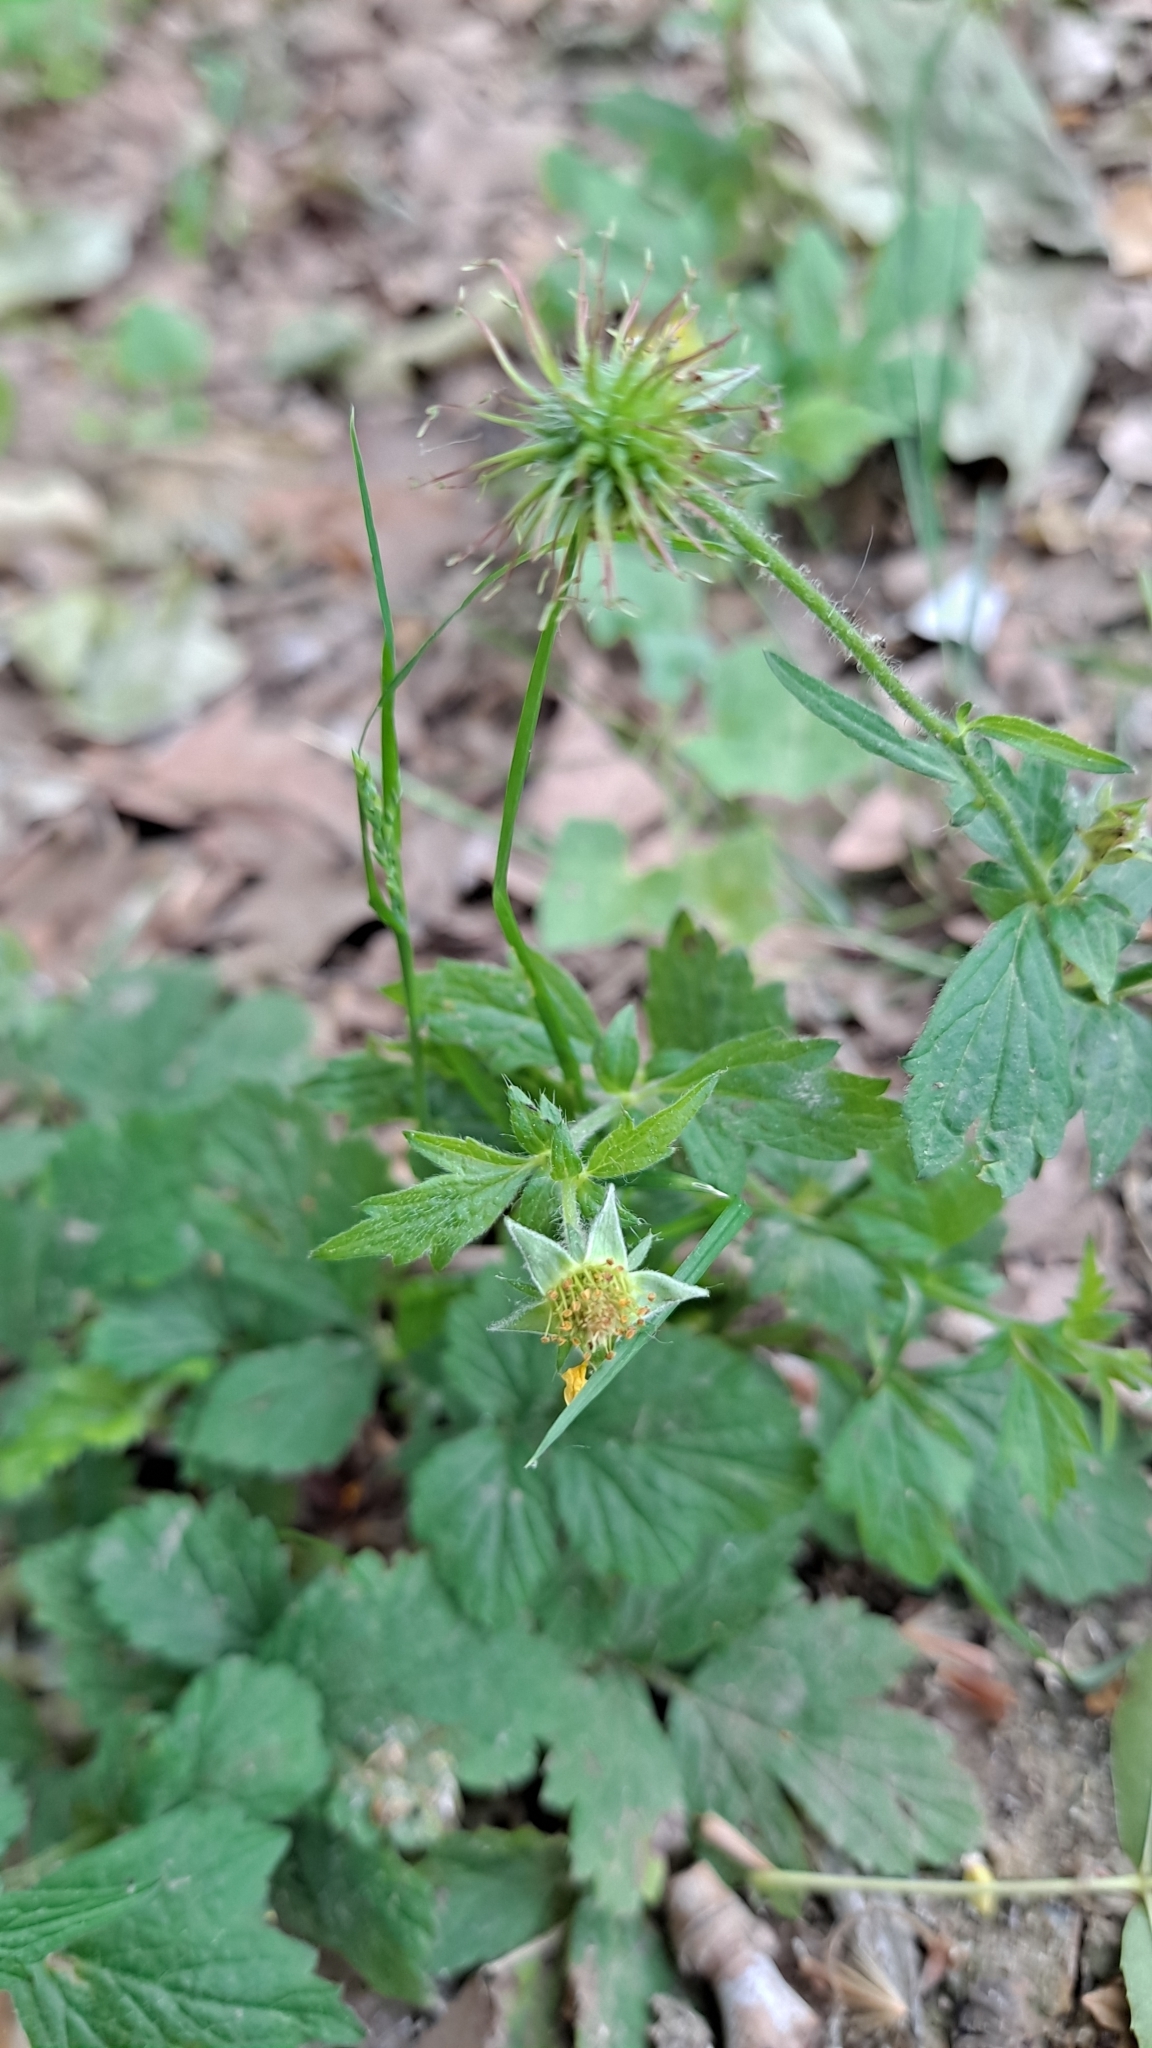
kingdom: Plantae
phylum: Tracheophyta
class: Magnoliopsida
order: Rosales
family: Rosaceae
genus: Geum
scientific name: Geum urbanum
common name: Wood avens
